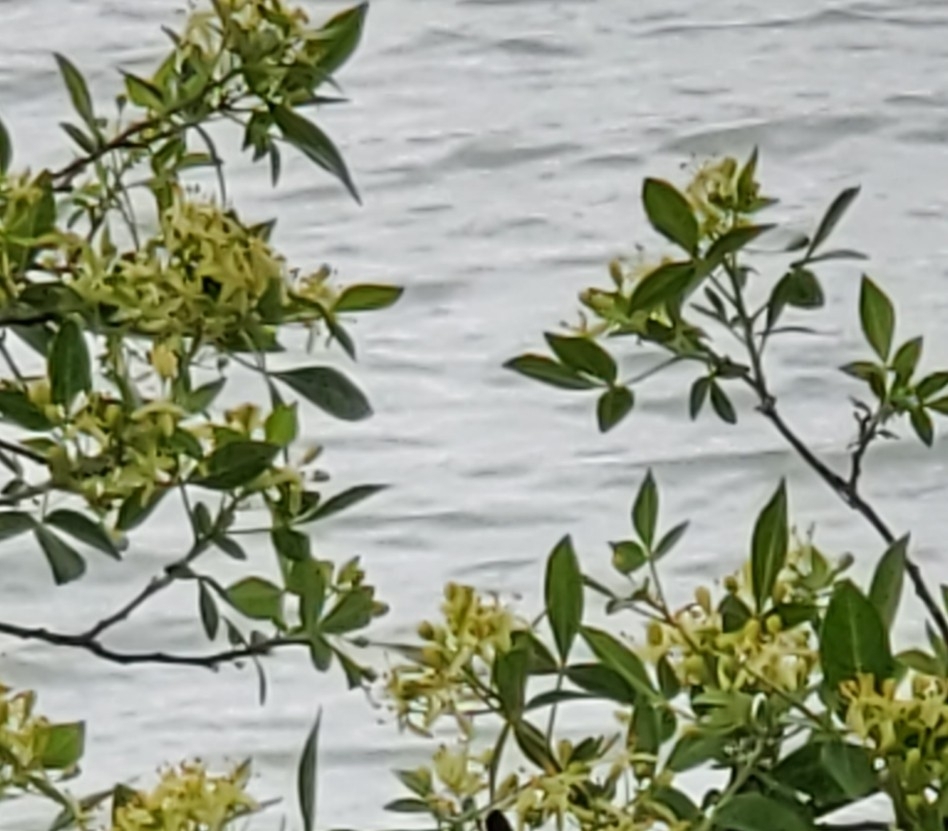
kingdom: Plantae
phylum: Tracheophyta
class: Magnoliopsida
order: Sapindales
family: Rutaceae
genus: Ptelea
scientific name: Ptelea trifoliata
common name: Common hop-tree
